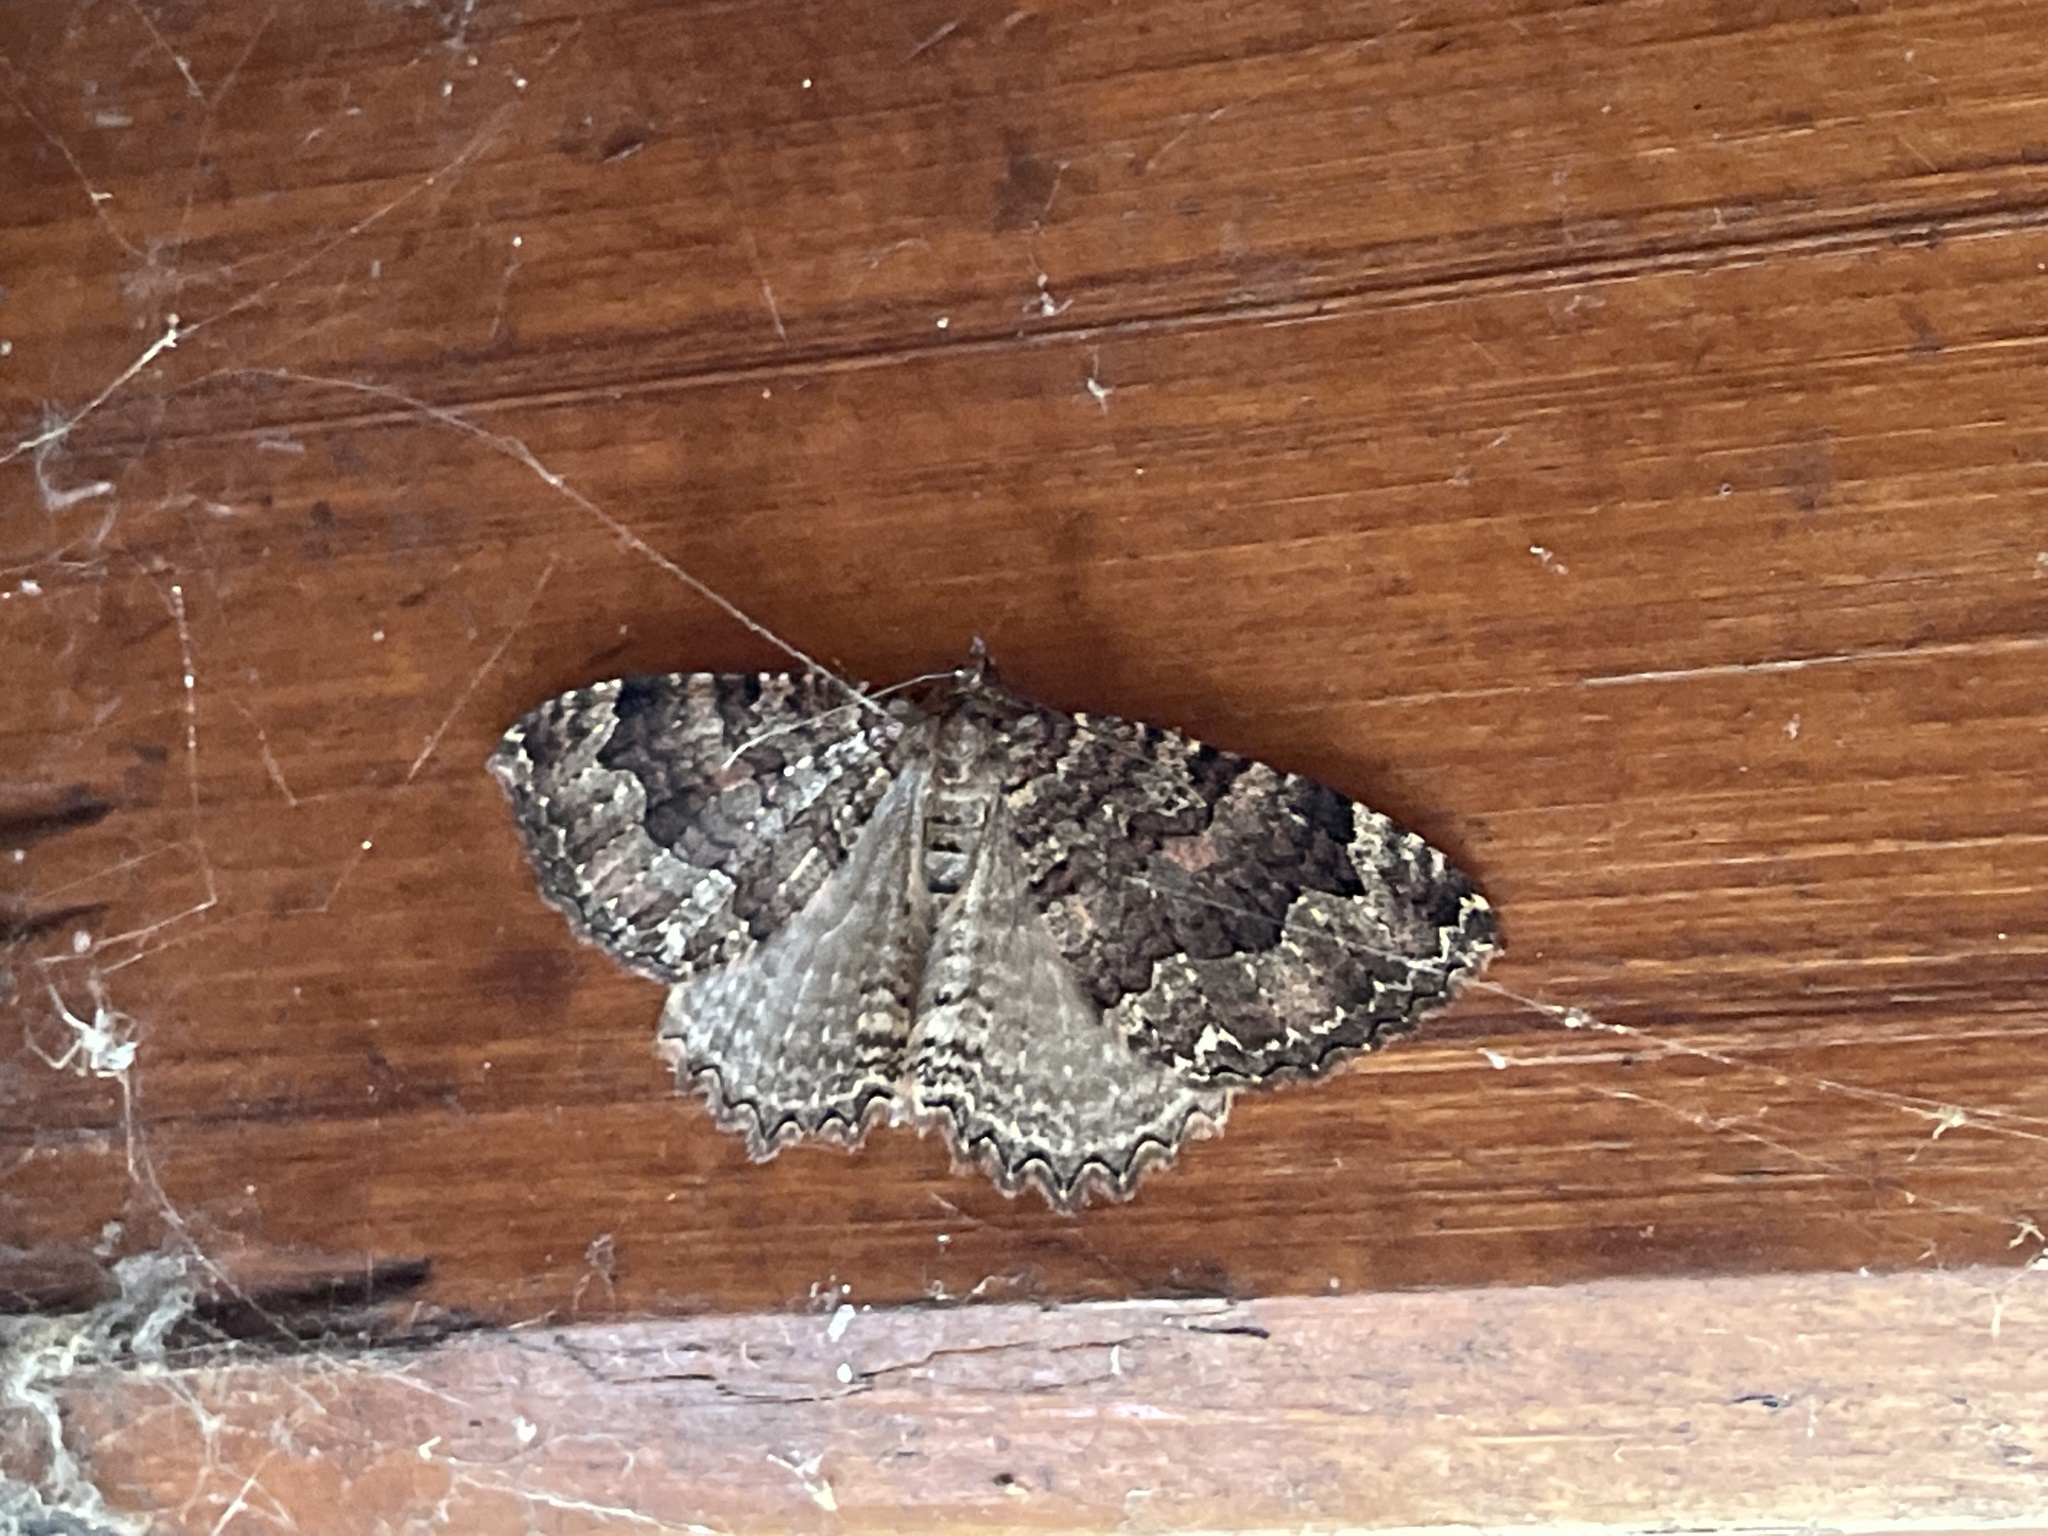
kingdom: Animalia
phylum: Arthropoda
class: Insecta
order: Lepidoptera
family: Geometridae
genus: Triphosa
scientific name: Triphosa dubitata
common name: Tissue
